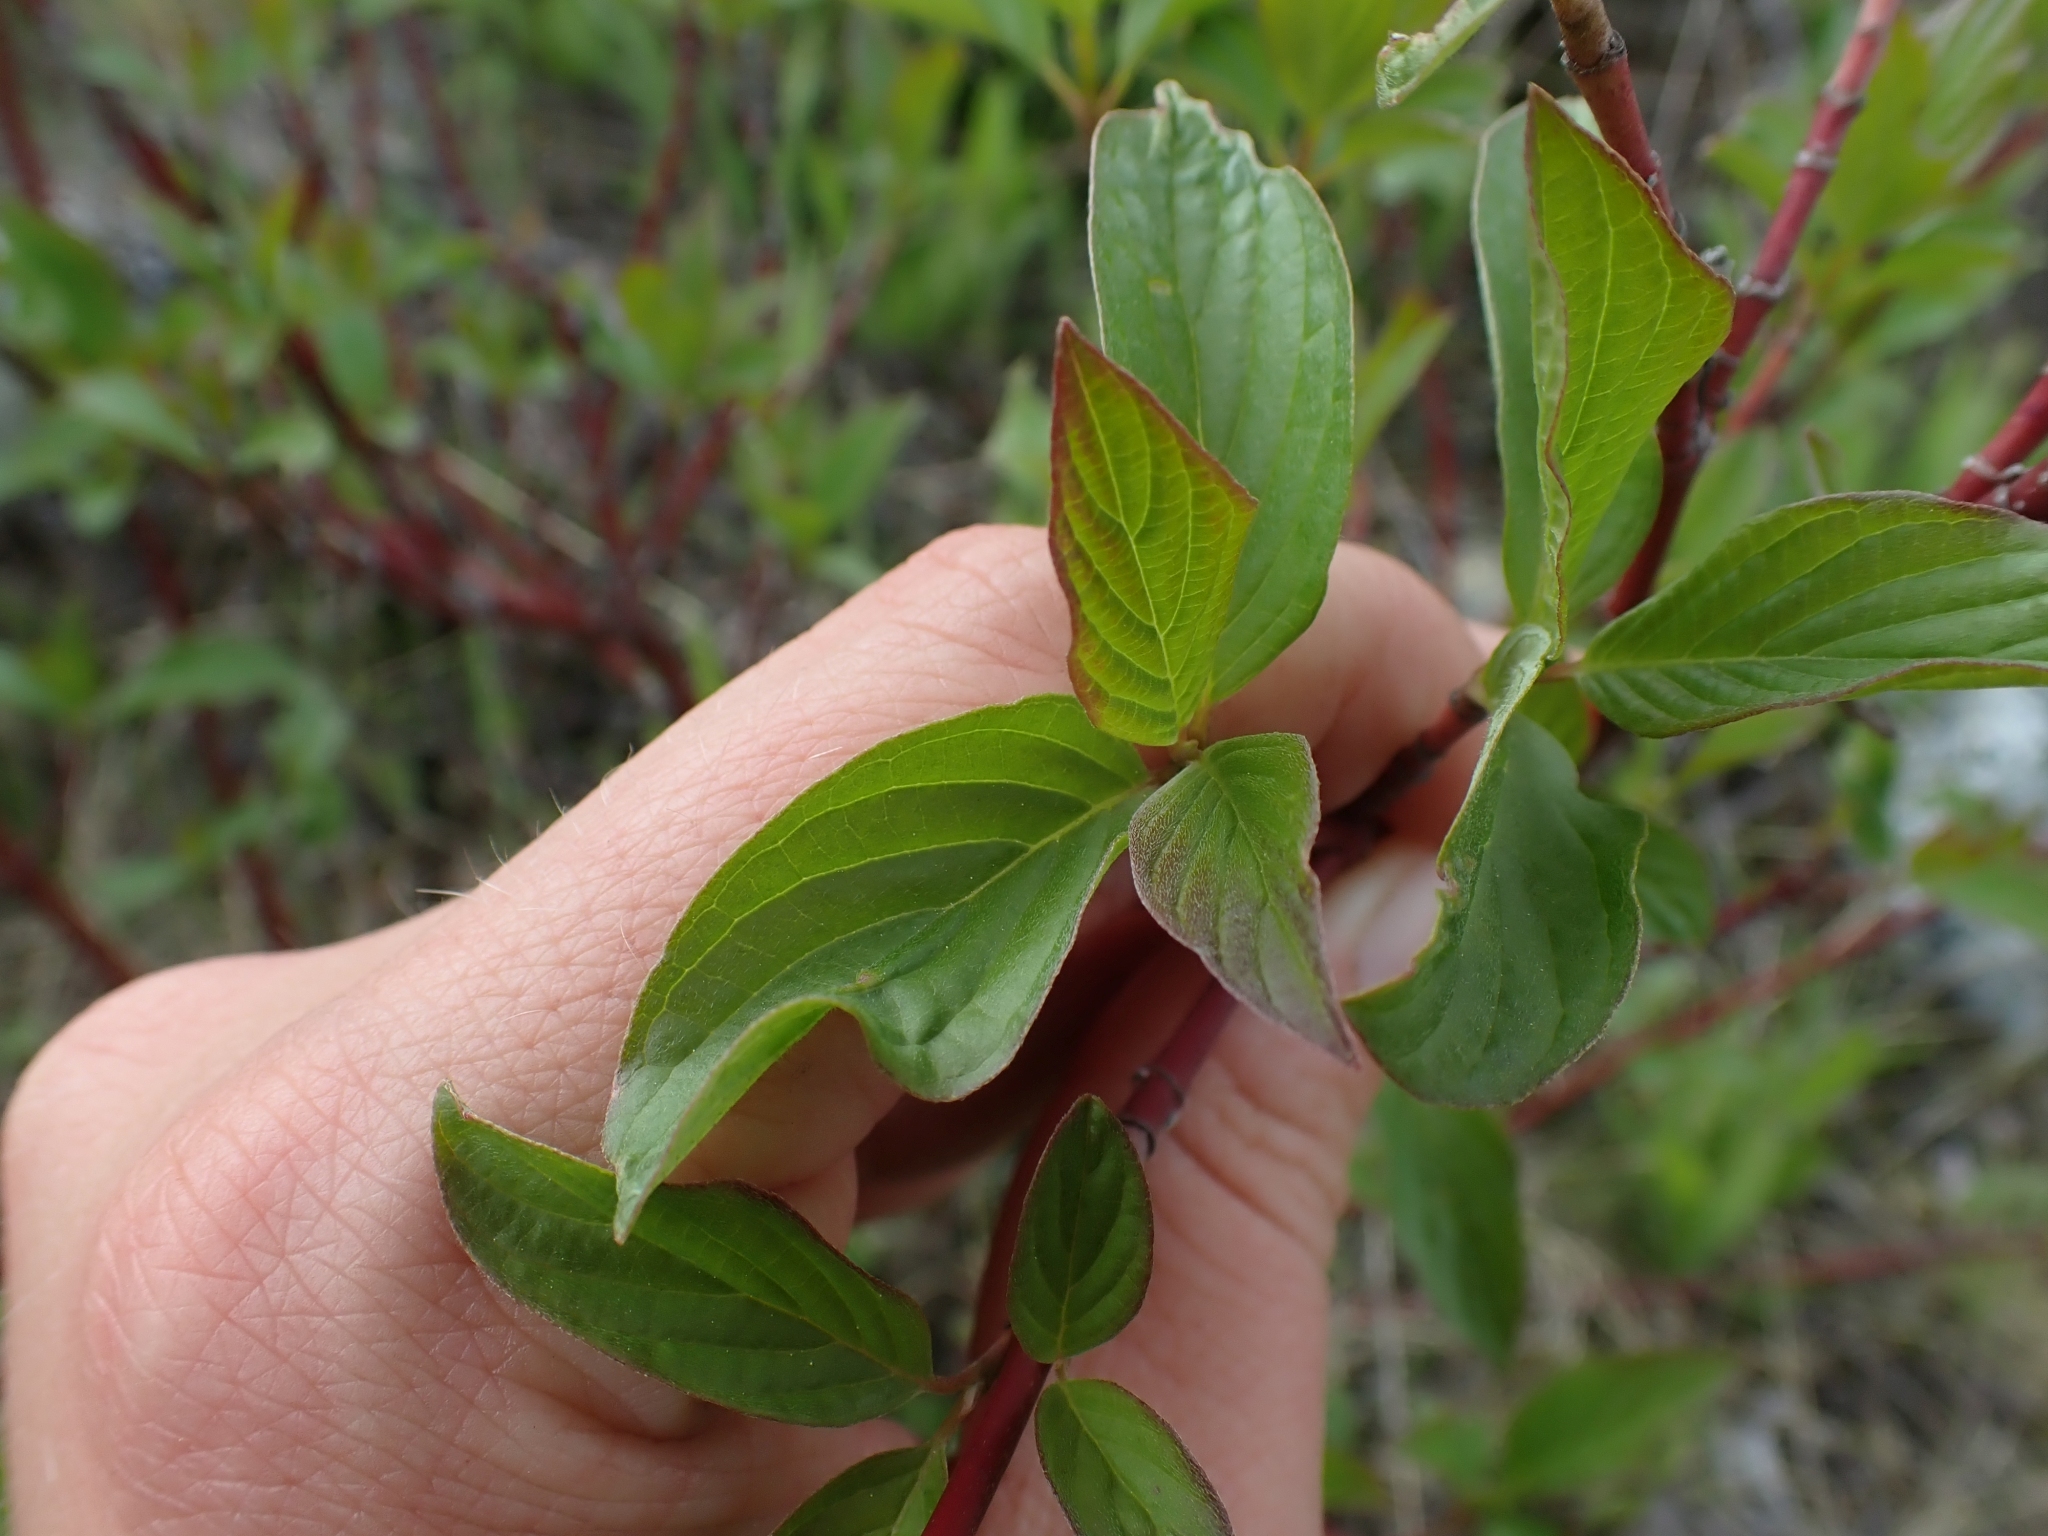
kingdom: Plantae
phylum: Tracheophyta
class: Magnoliopsida
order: Cornales
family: Cornaceae
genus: Cornus
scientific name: Cornus sericea
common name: Red-osier dogwood
